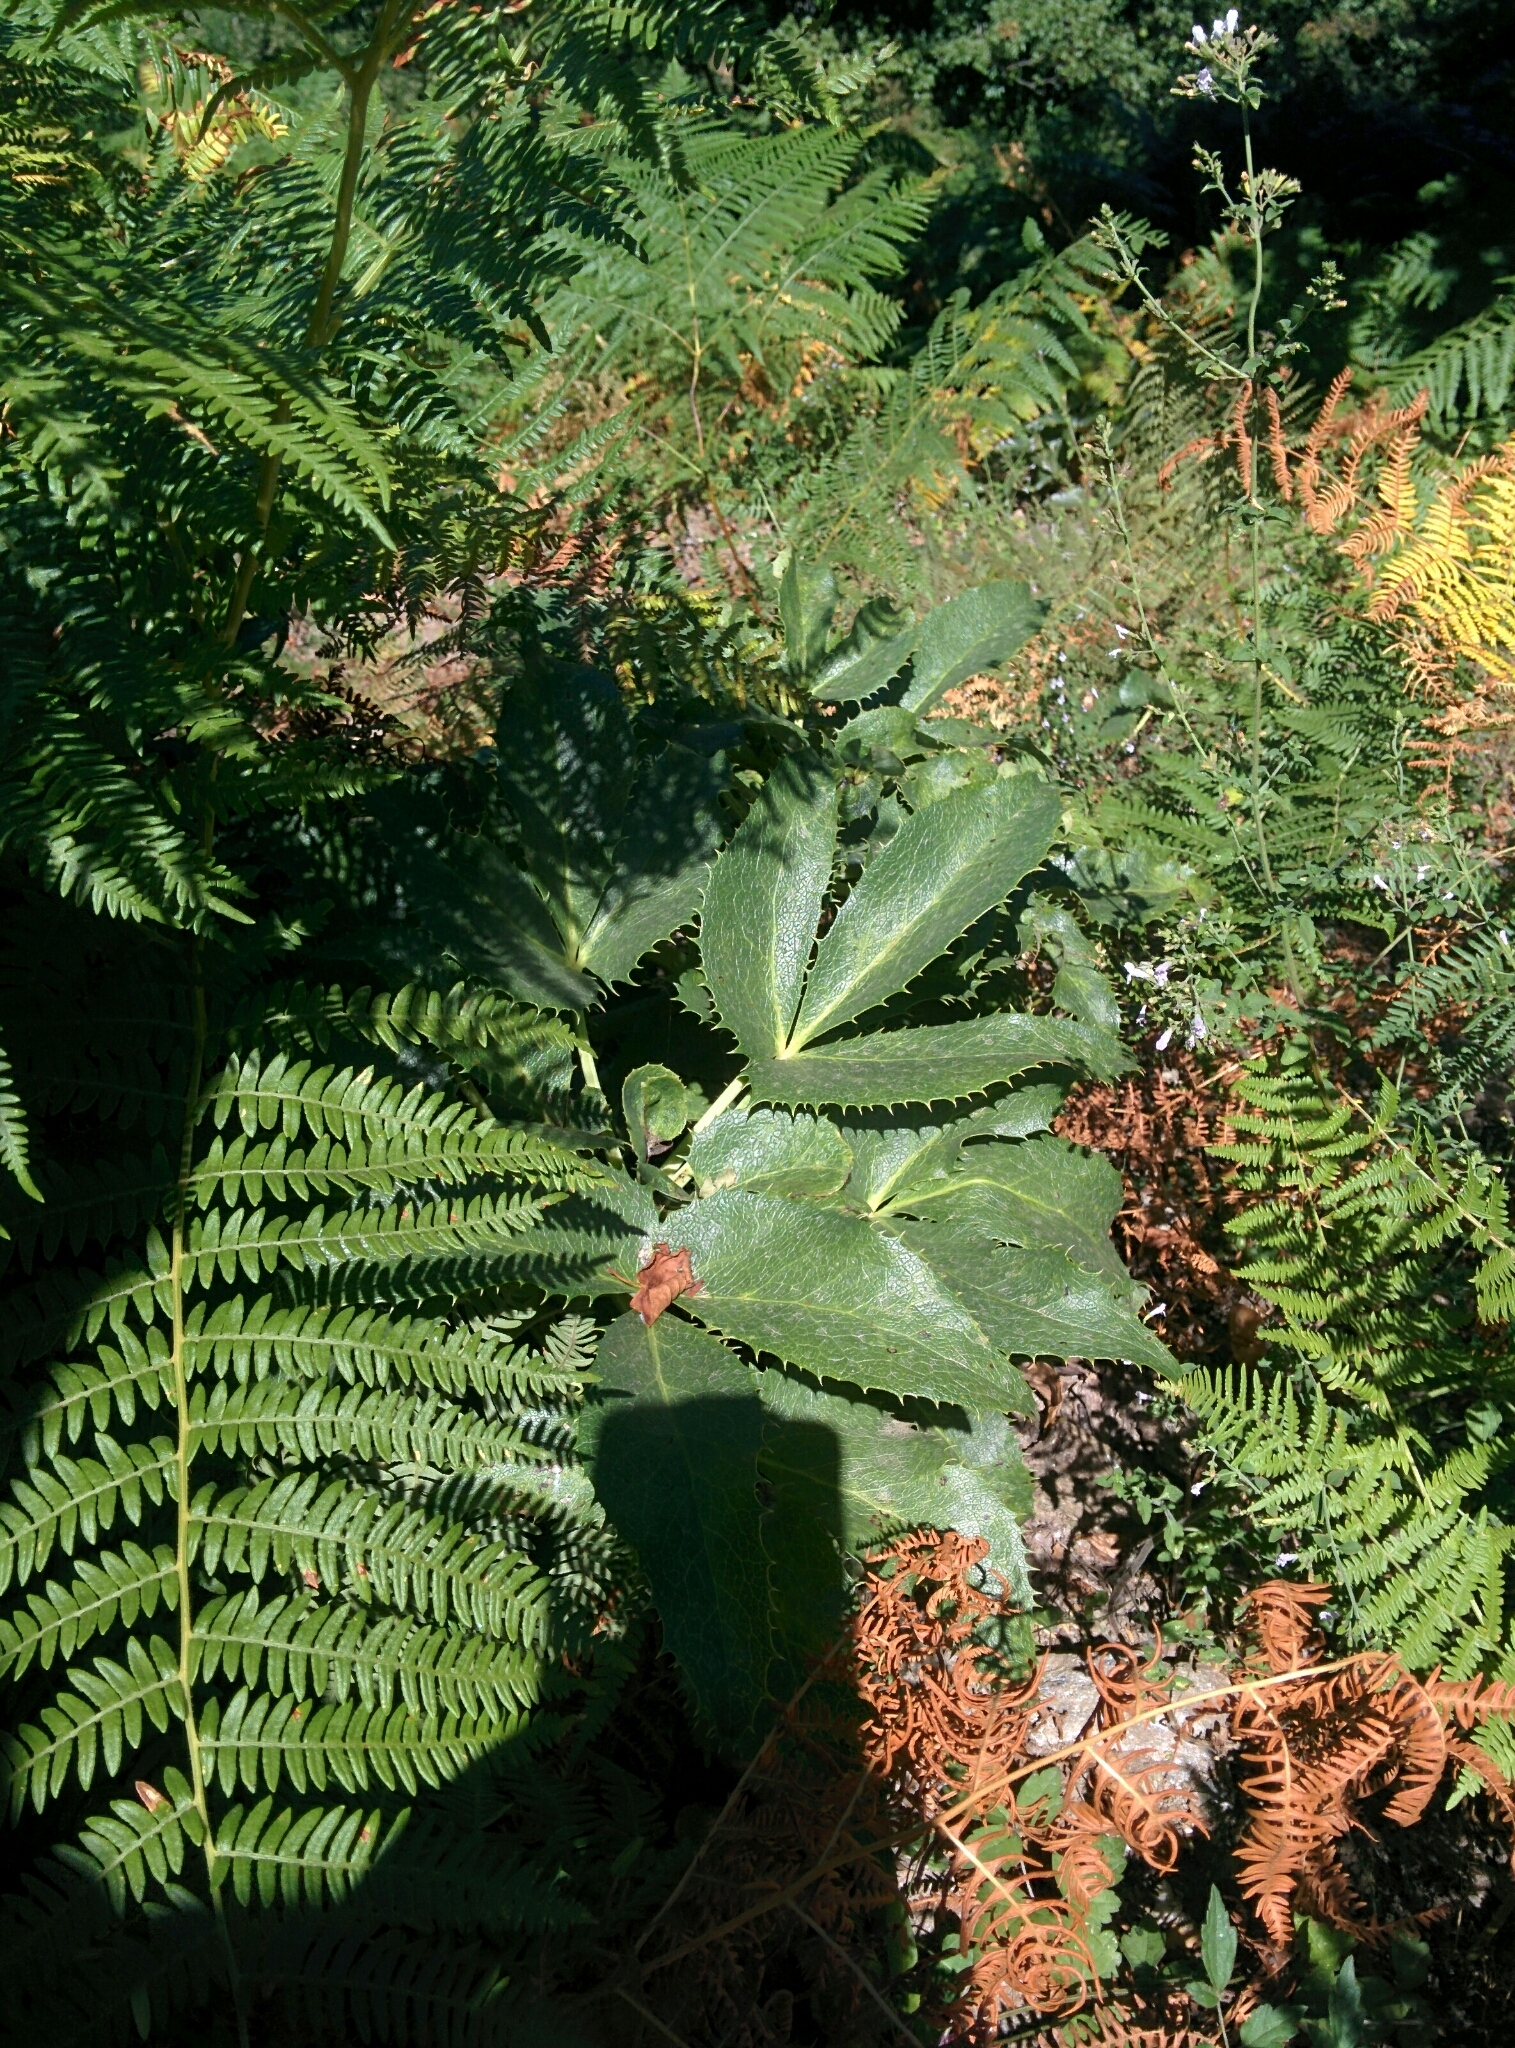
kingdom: Plantae
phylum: Tracheophyta
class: Magnoliopsida
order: Ranunculales
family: Ranunculaceae
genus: Helleborus
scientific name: Helleborus argutifolius
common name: Corsican hellebore
